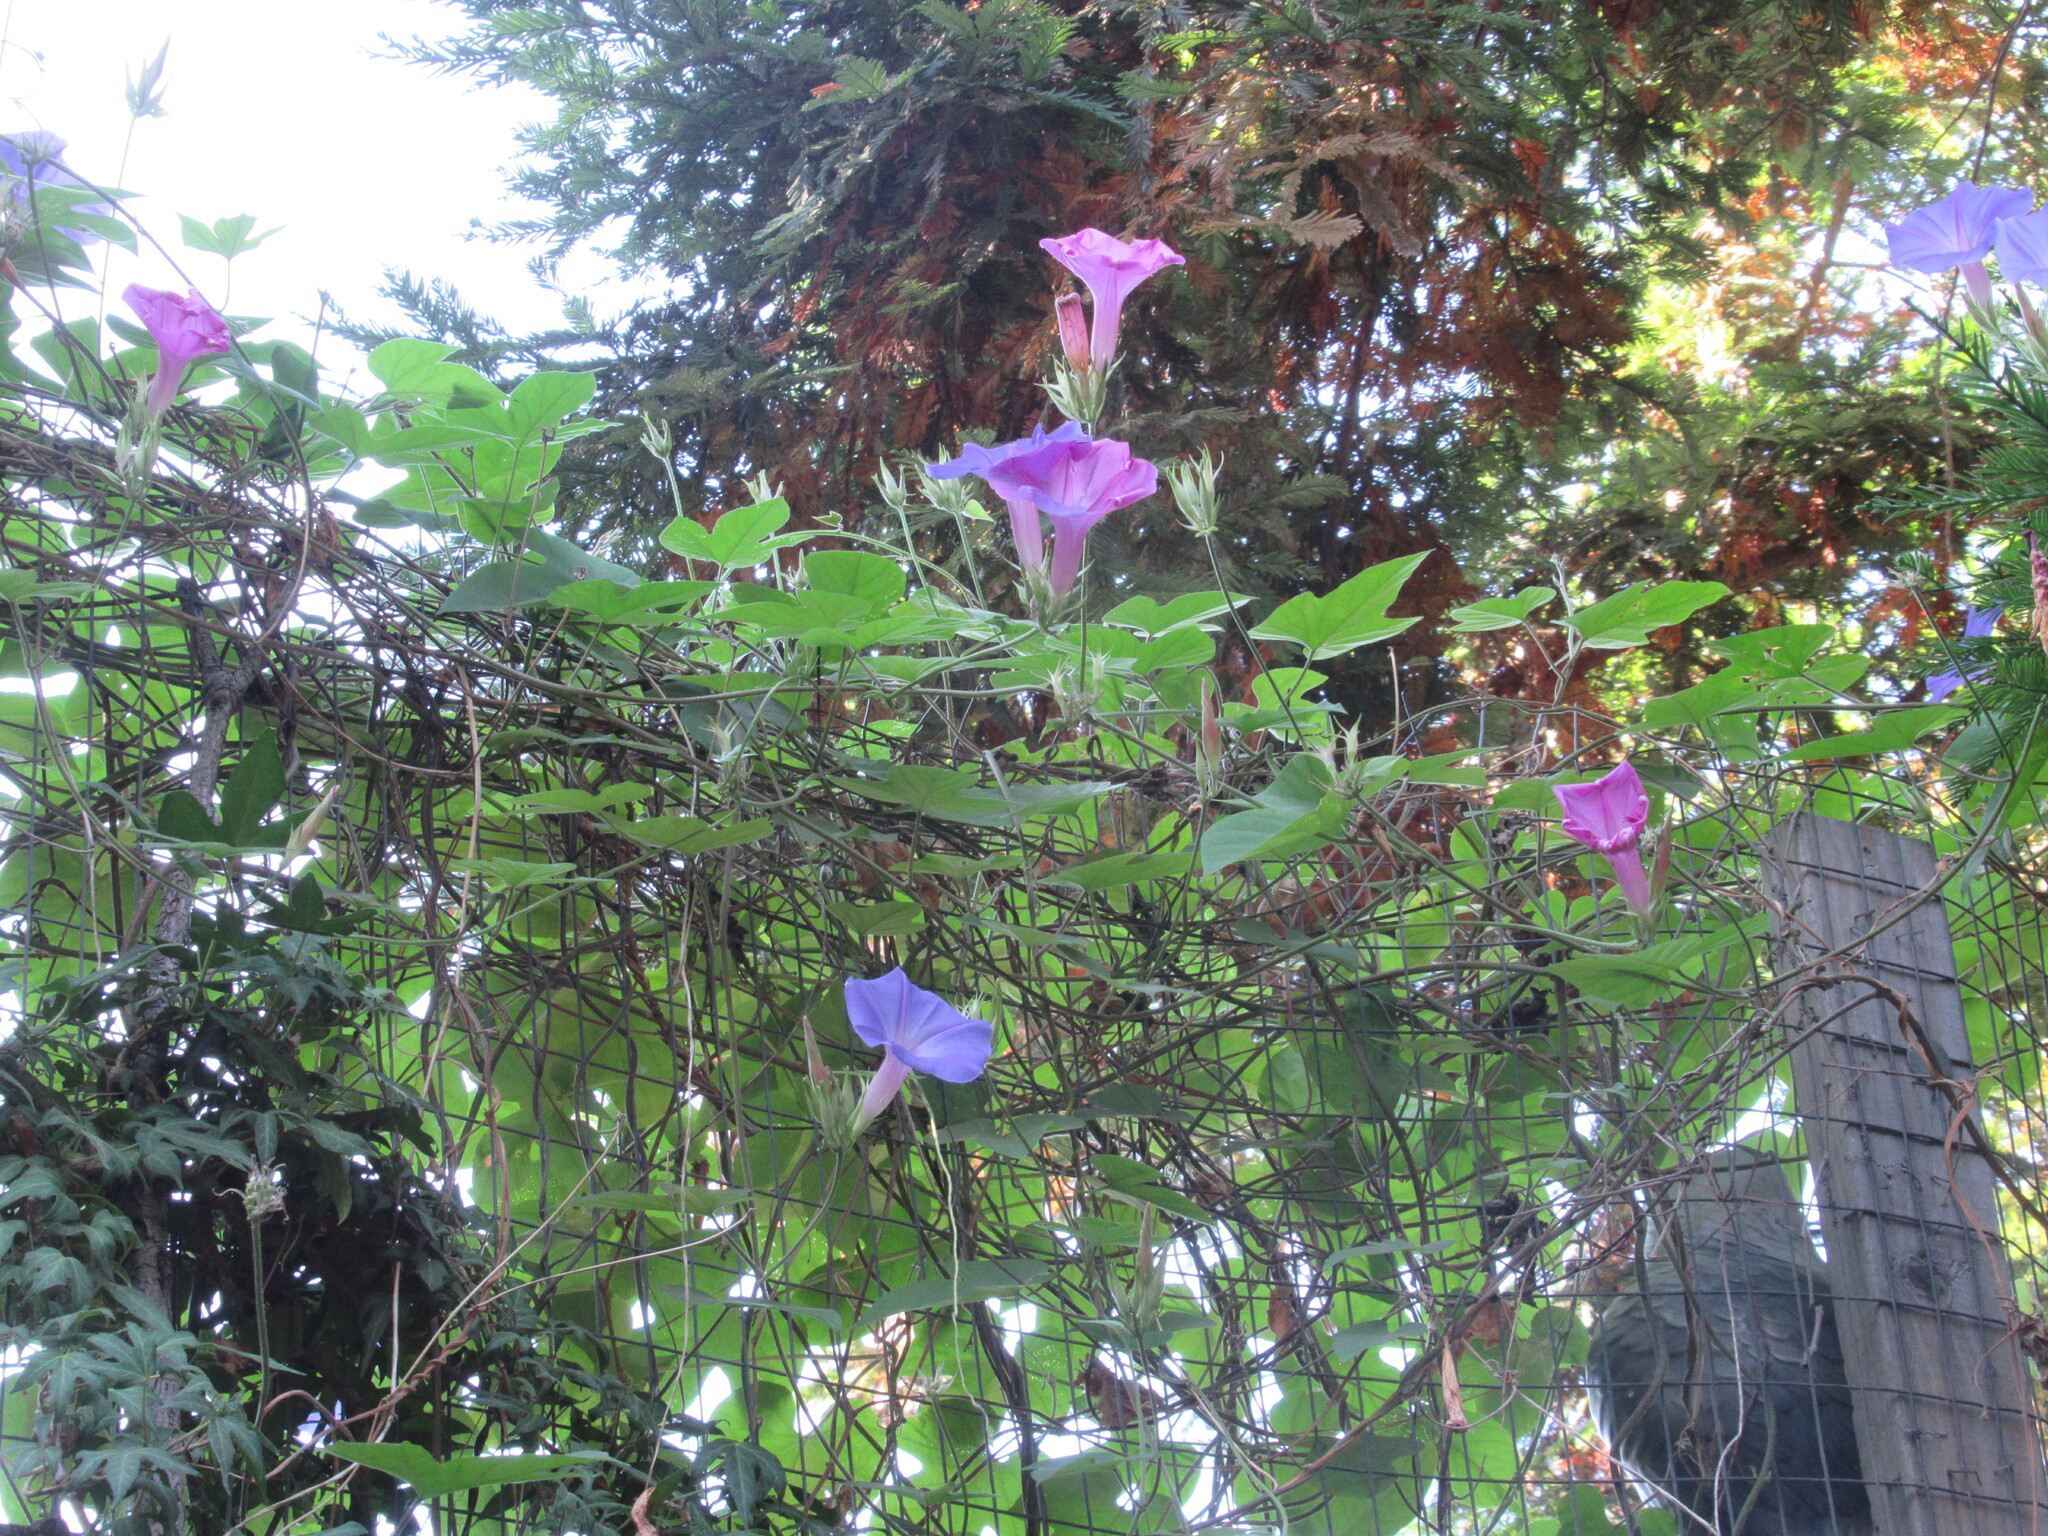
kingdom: Plantae
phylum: Tracheophyta
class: Magnoliopsida
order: Solanales
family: Convolvulaceae
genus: Ipomoea
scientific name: Ipomoea indica
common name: Blue dawnflower
